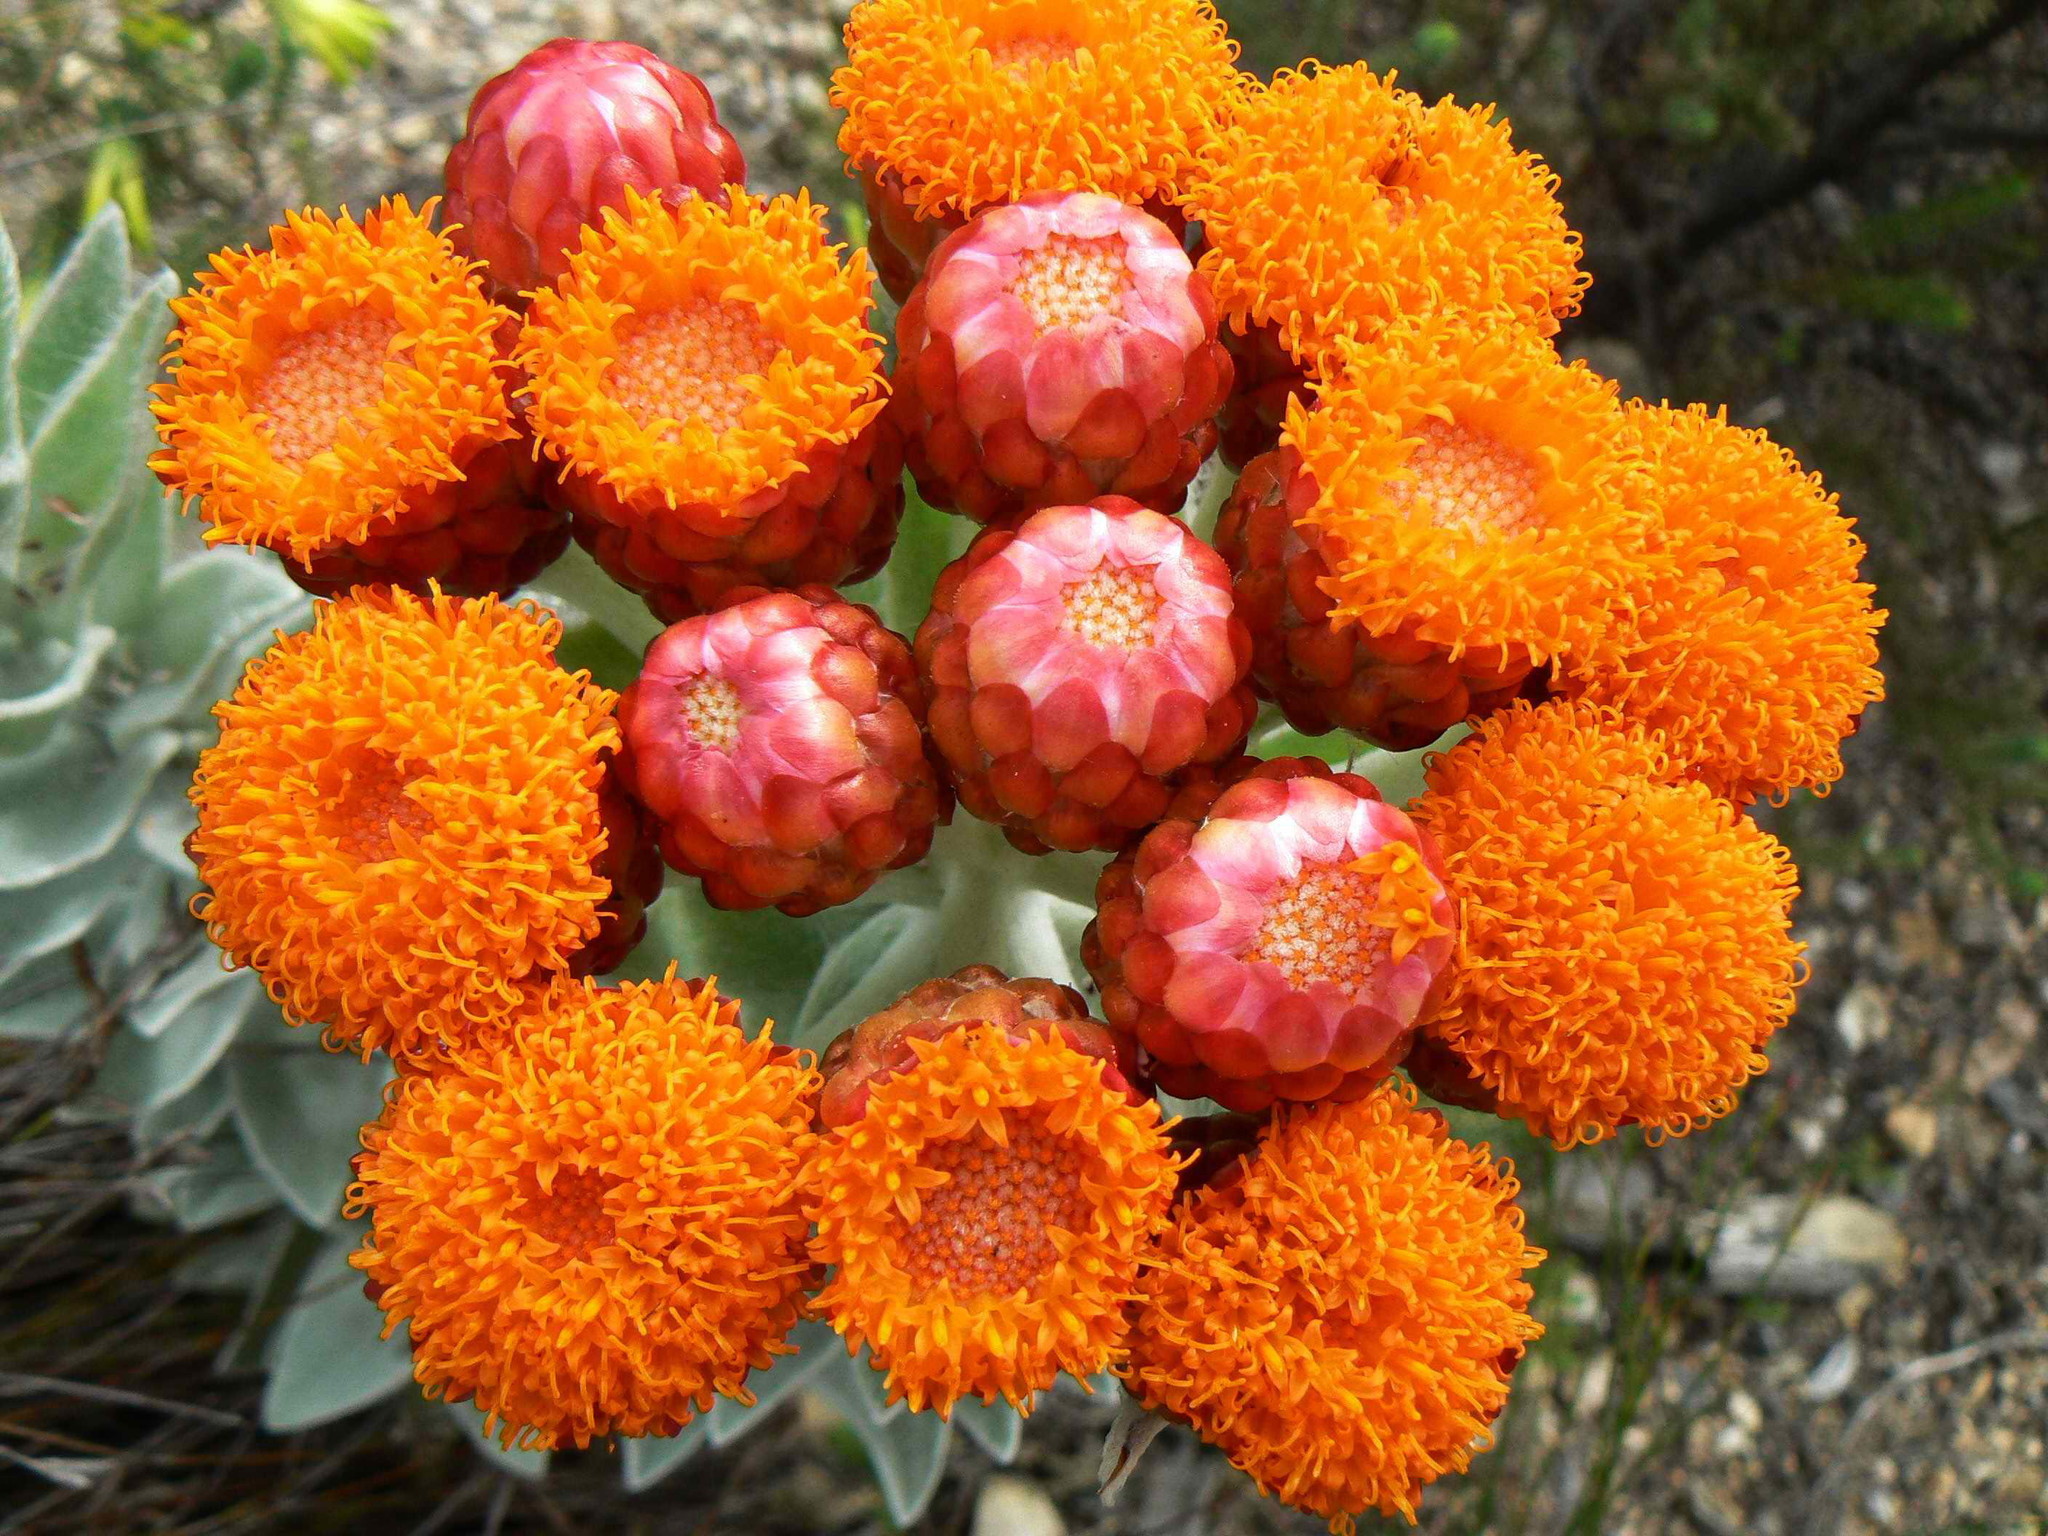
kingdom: Plantae
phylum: Tracheophyta
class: Magnoliopsida
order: Asterales
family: Asteraceae
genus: Syncarpha
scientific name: Syncarpha eximia
